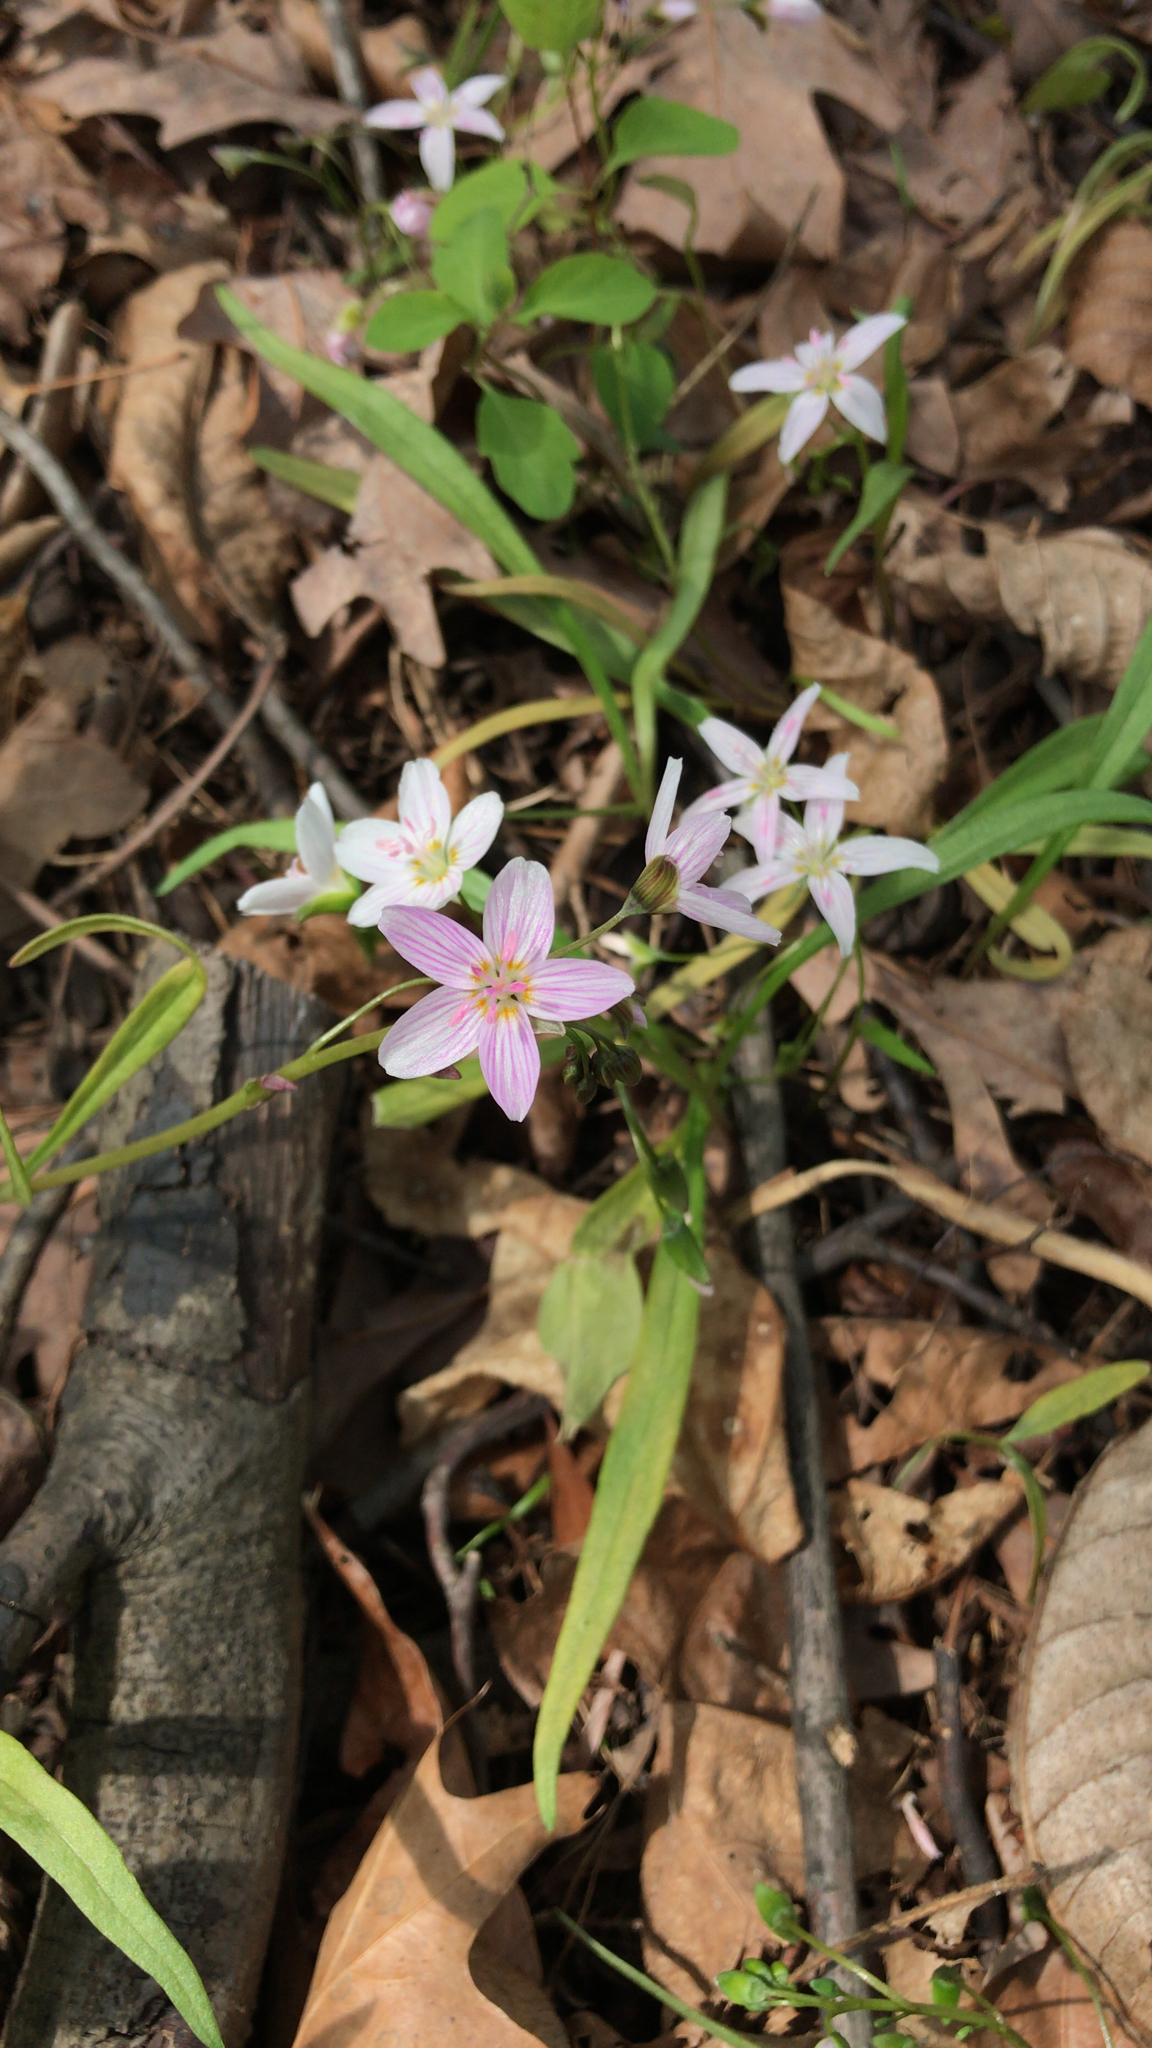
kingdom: Plantae
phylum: Tracheophyta
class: Magnoliopsida
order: Caryophyllales
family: Montiaceae
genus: Claytonia
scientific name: Claytonia virginica
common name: Virginia springbeauty
